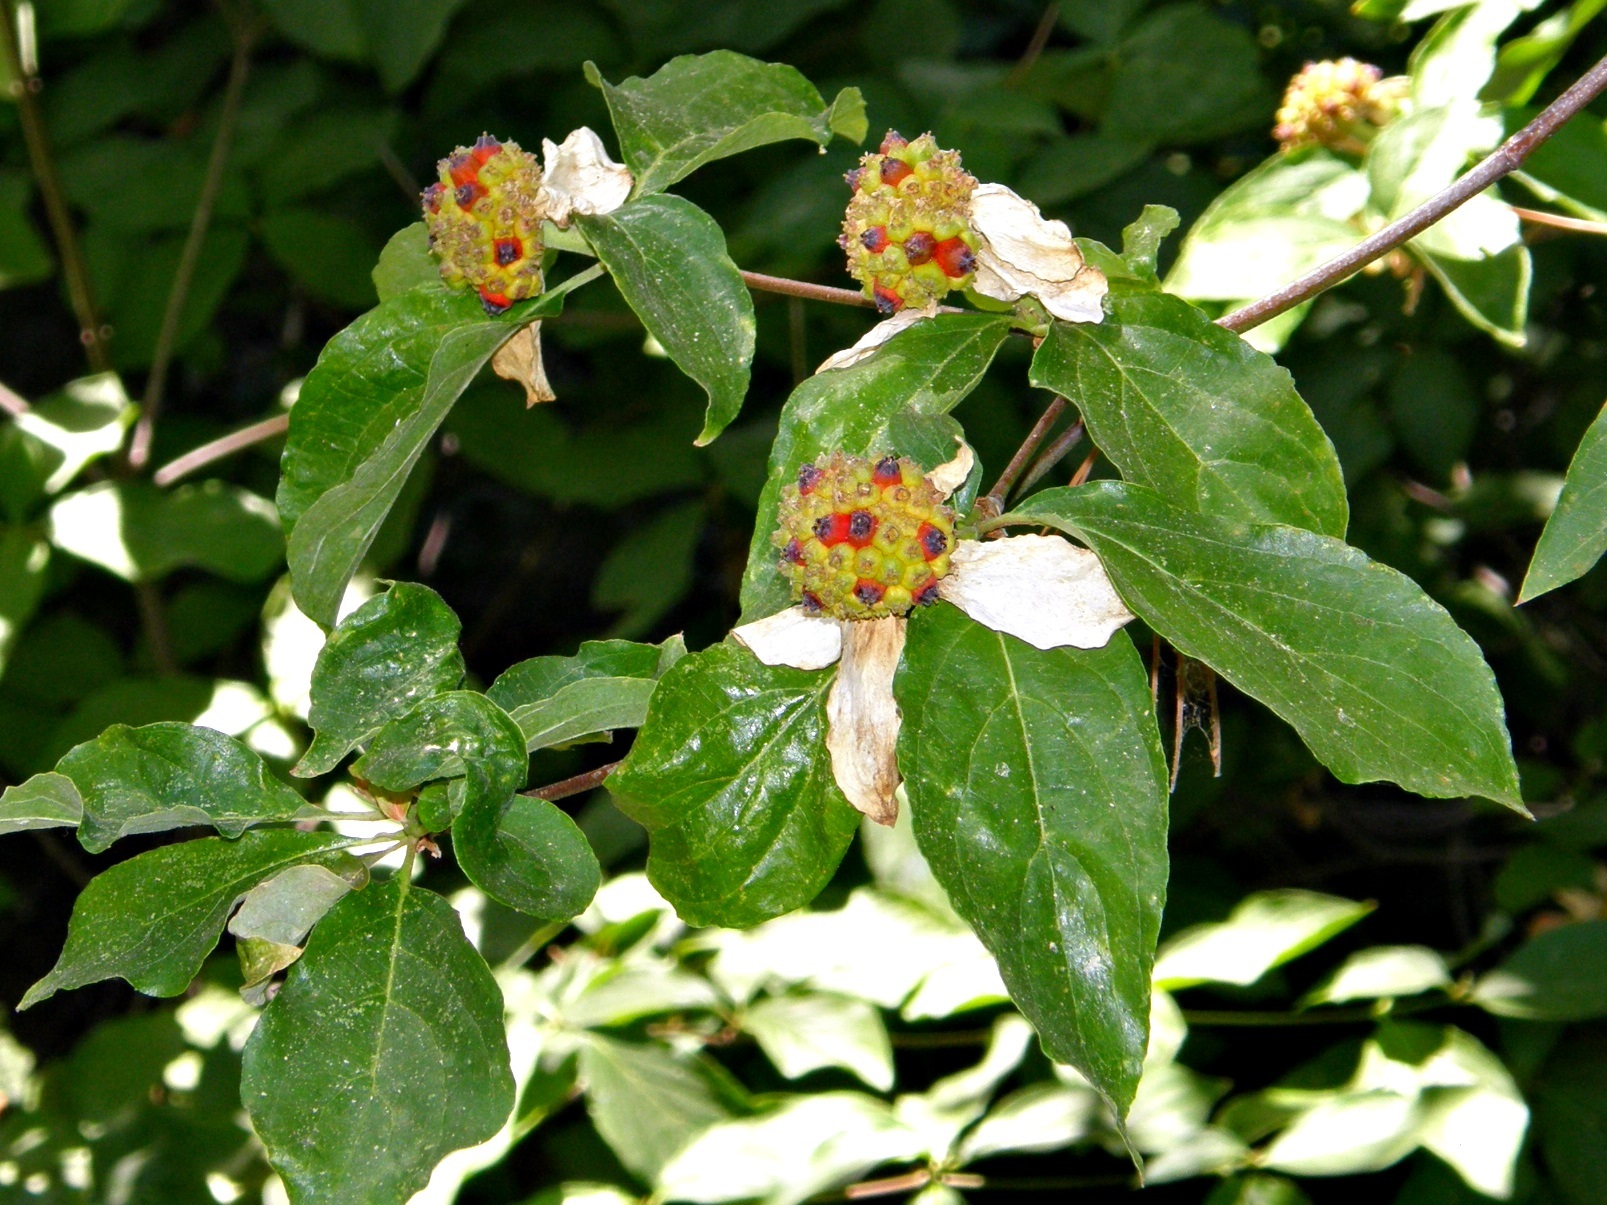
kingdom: Plantae
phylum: Tracheophyta
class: Magnoliopsida
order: Cornales
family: Cornaceae
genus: Cornus
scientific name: Cornus nuttallii
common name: Pacific dogwood
